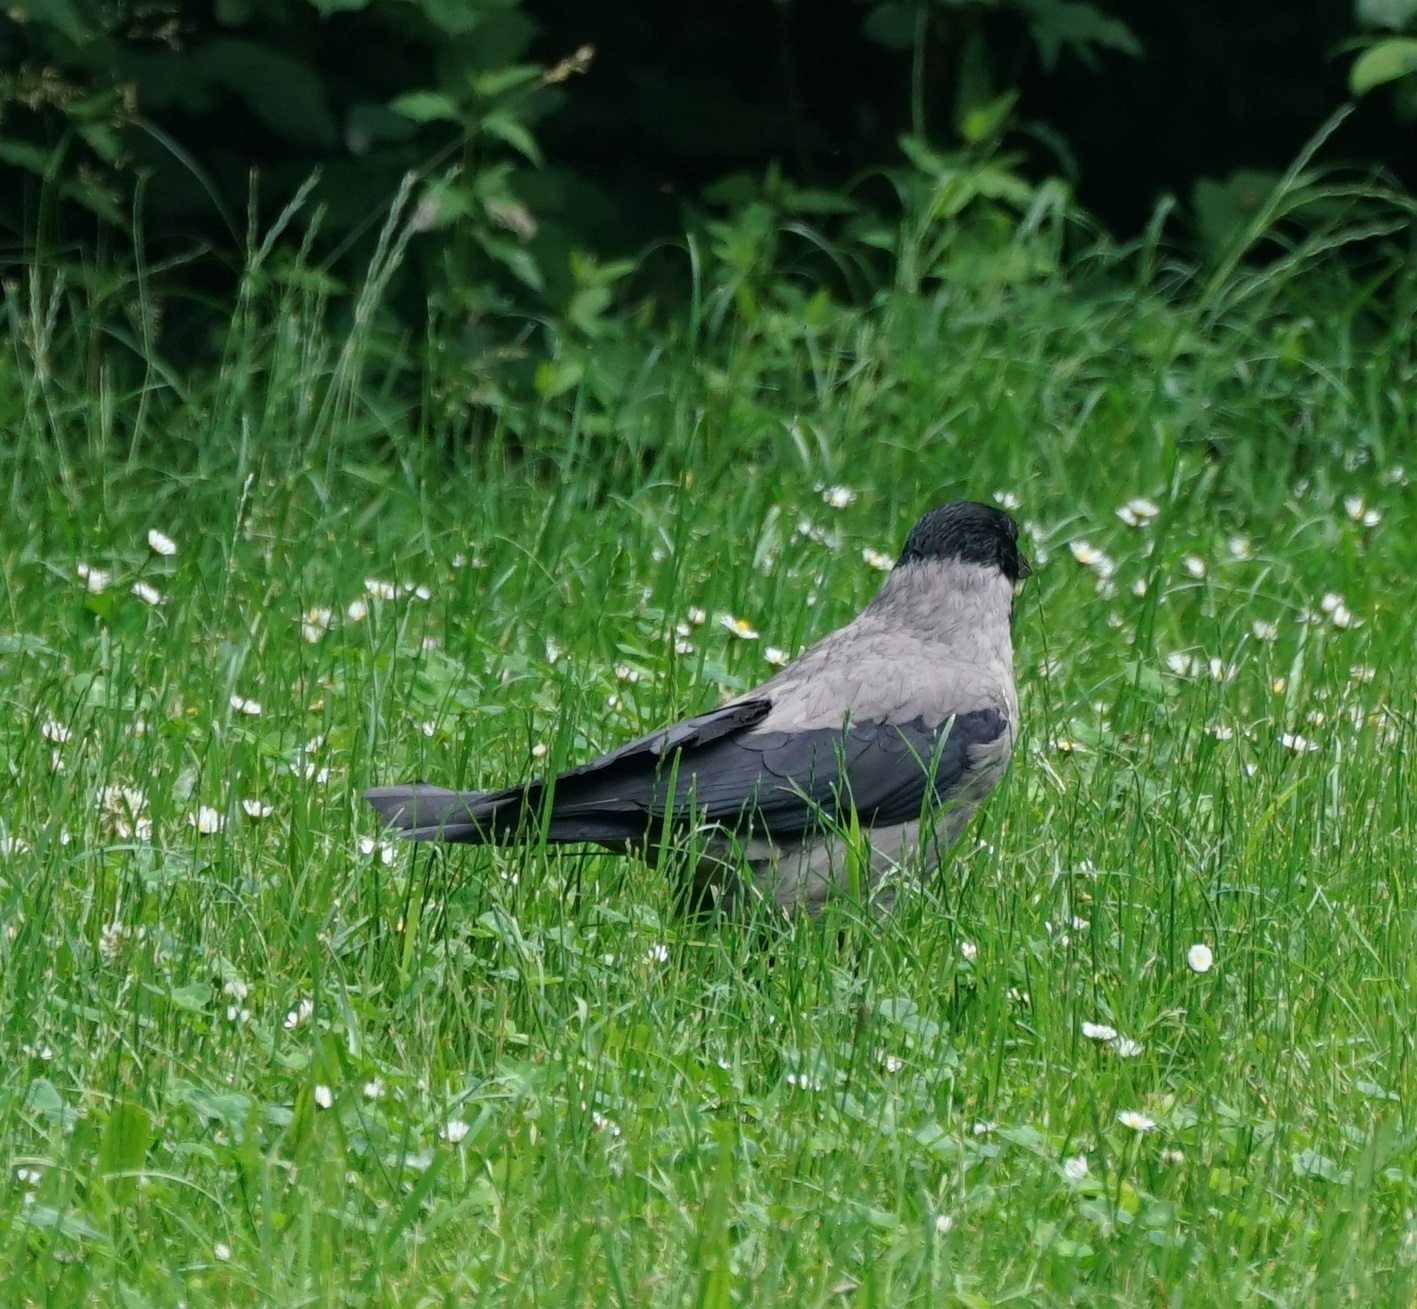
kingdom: Animalia
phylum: Chordata
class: Aves
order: Passeriformes
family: Corvidae
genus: Corvus
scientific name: Corvus cornix
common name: Hooded crow
